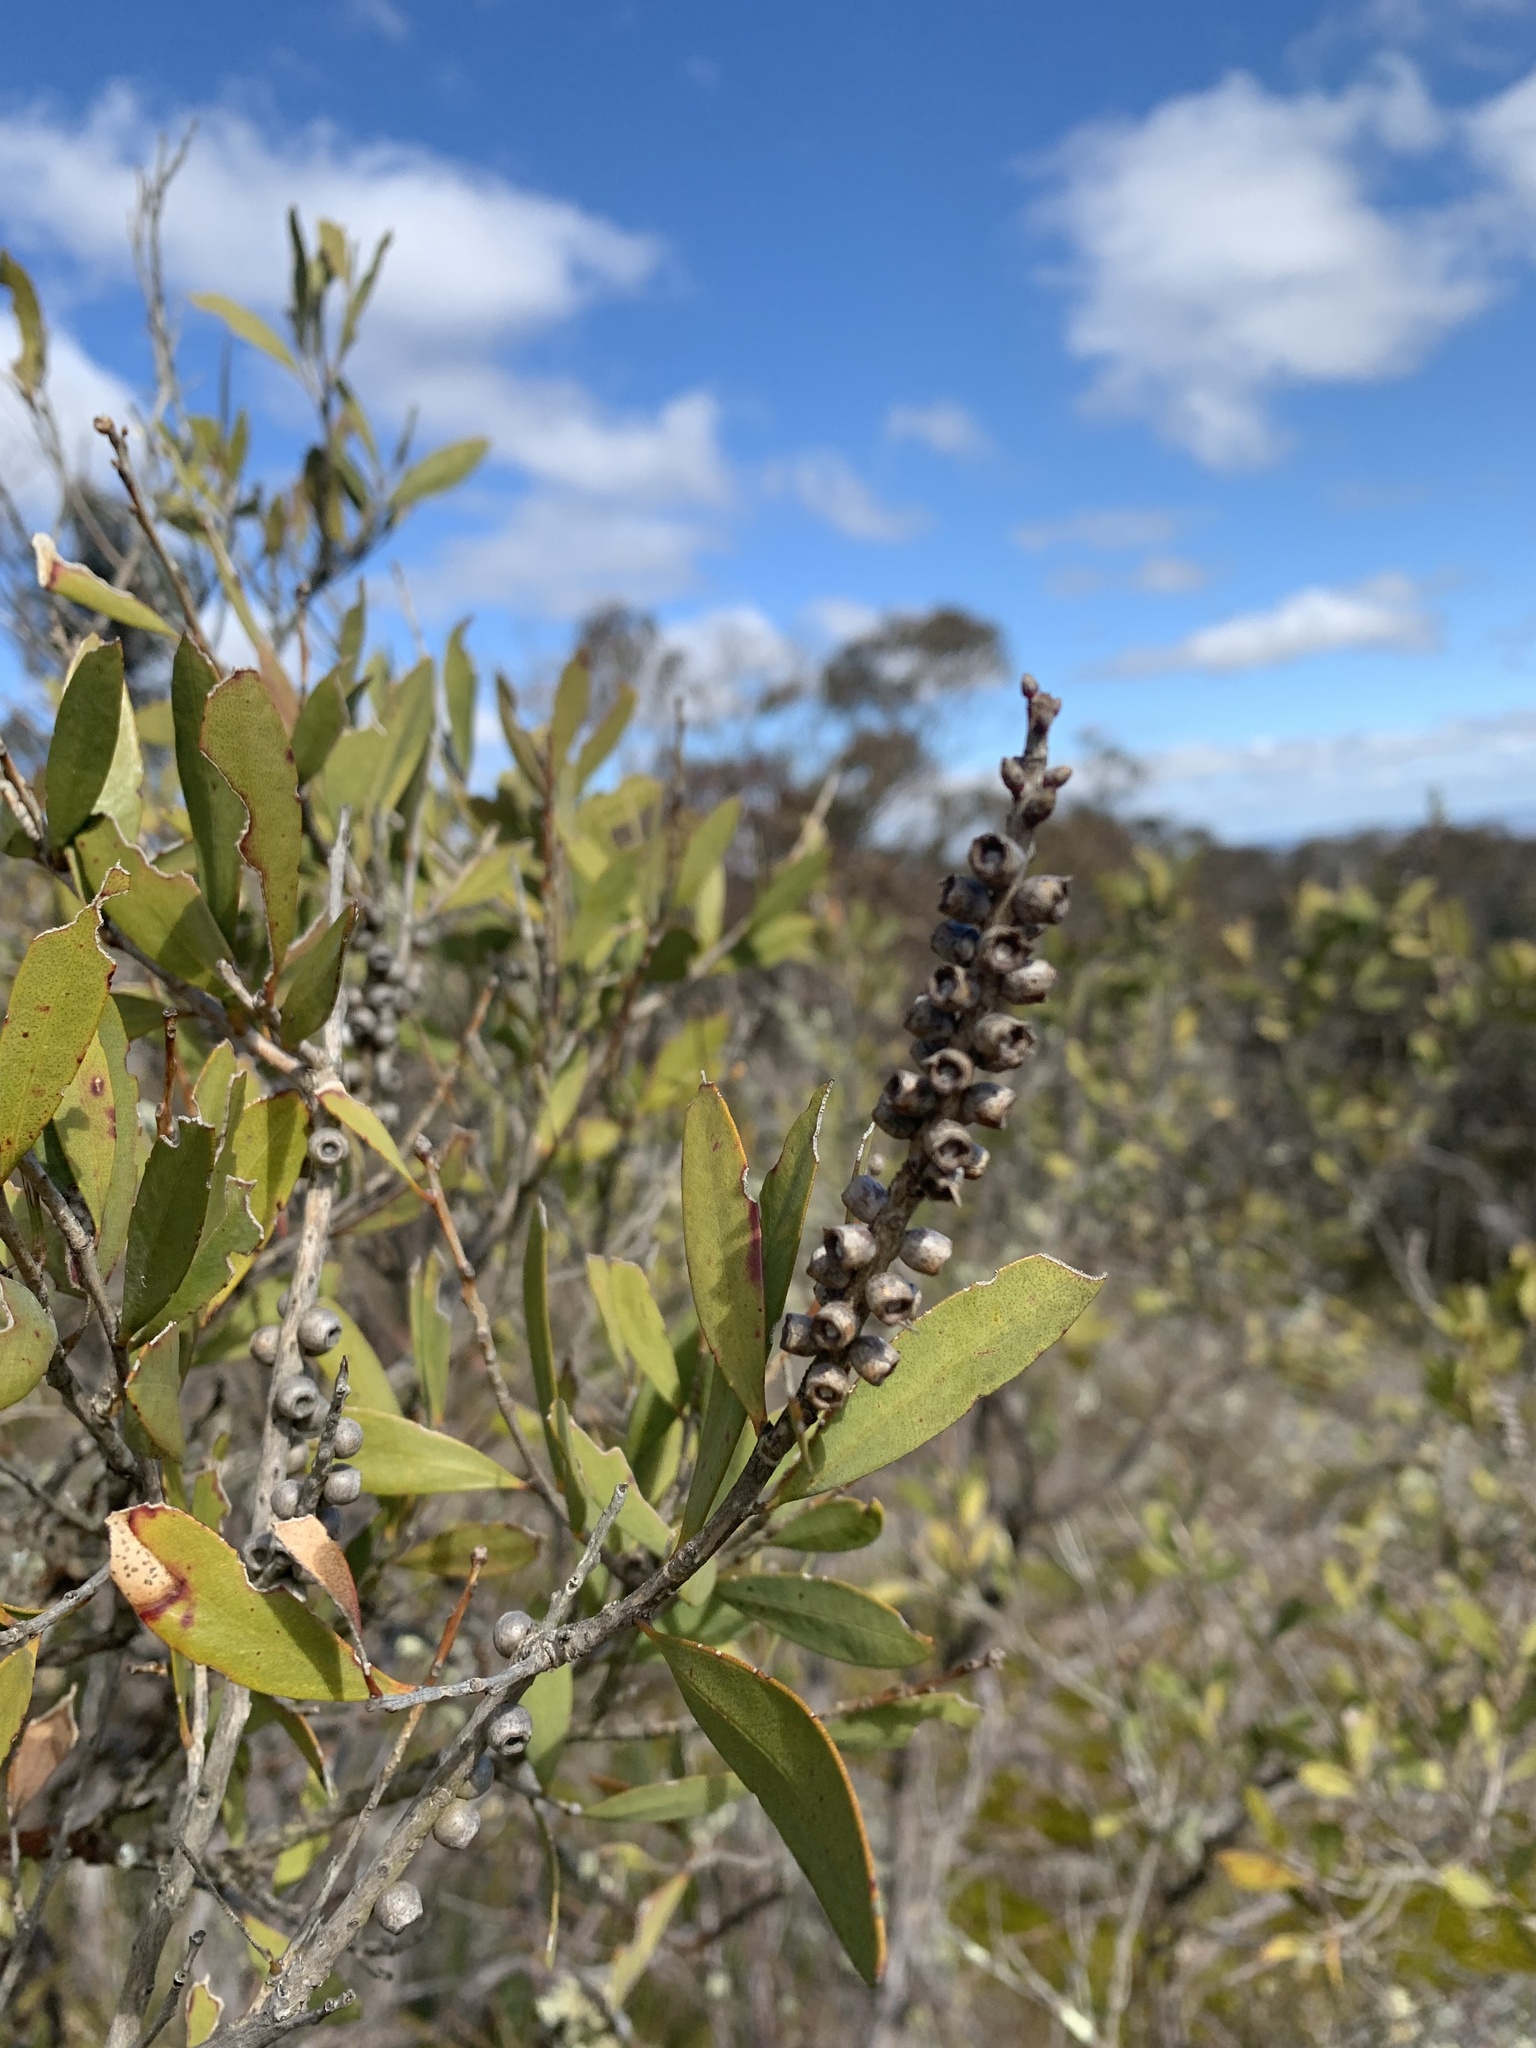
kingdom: Plantae
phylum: Tracheophyta
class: Magnoliopsida
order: Myrtales
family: Myrtaceae
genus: Melaleuca
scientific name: Melaleuca pallida
